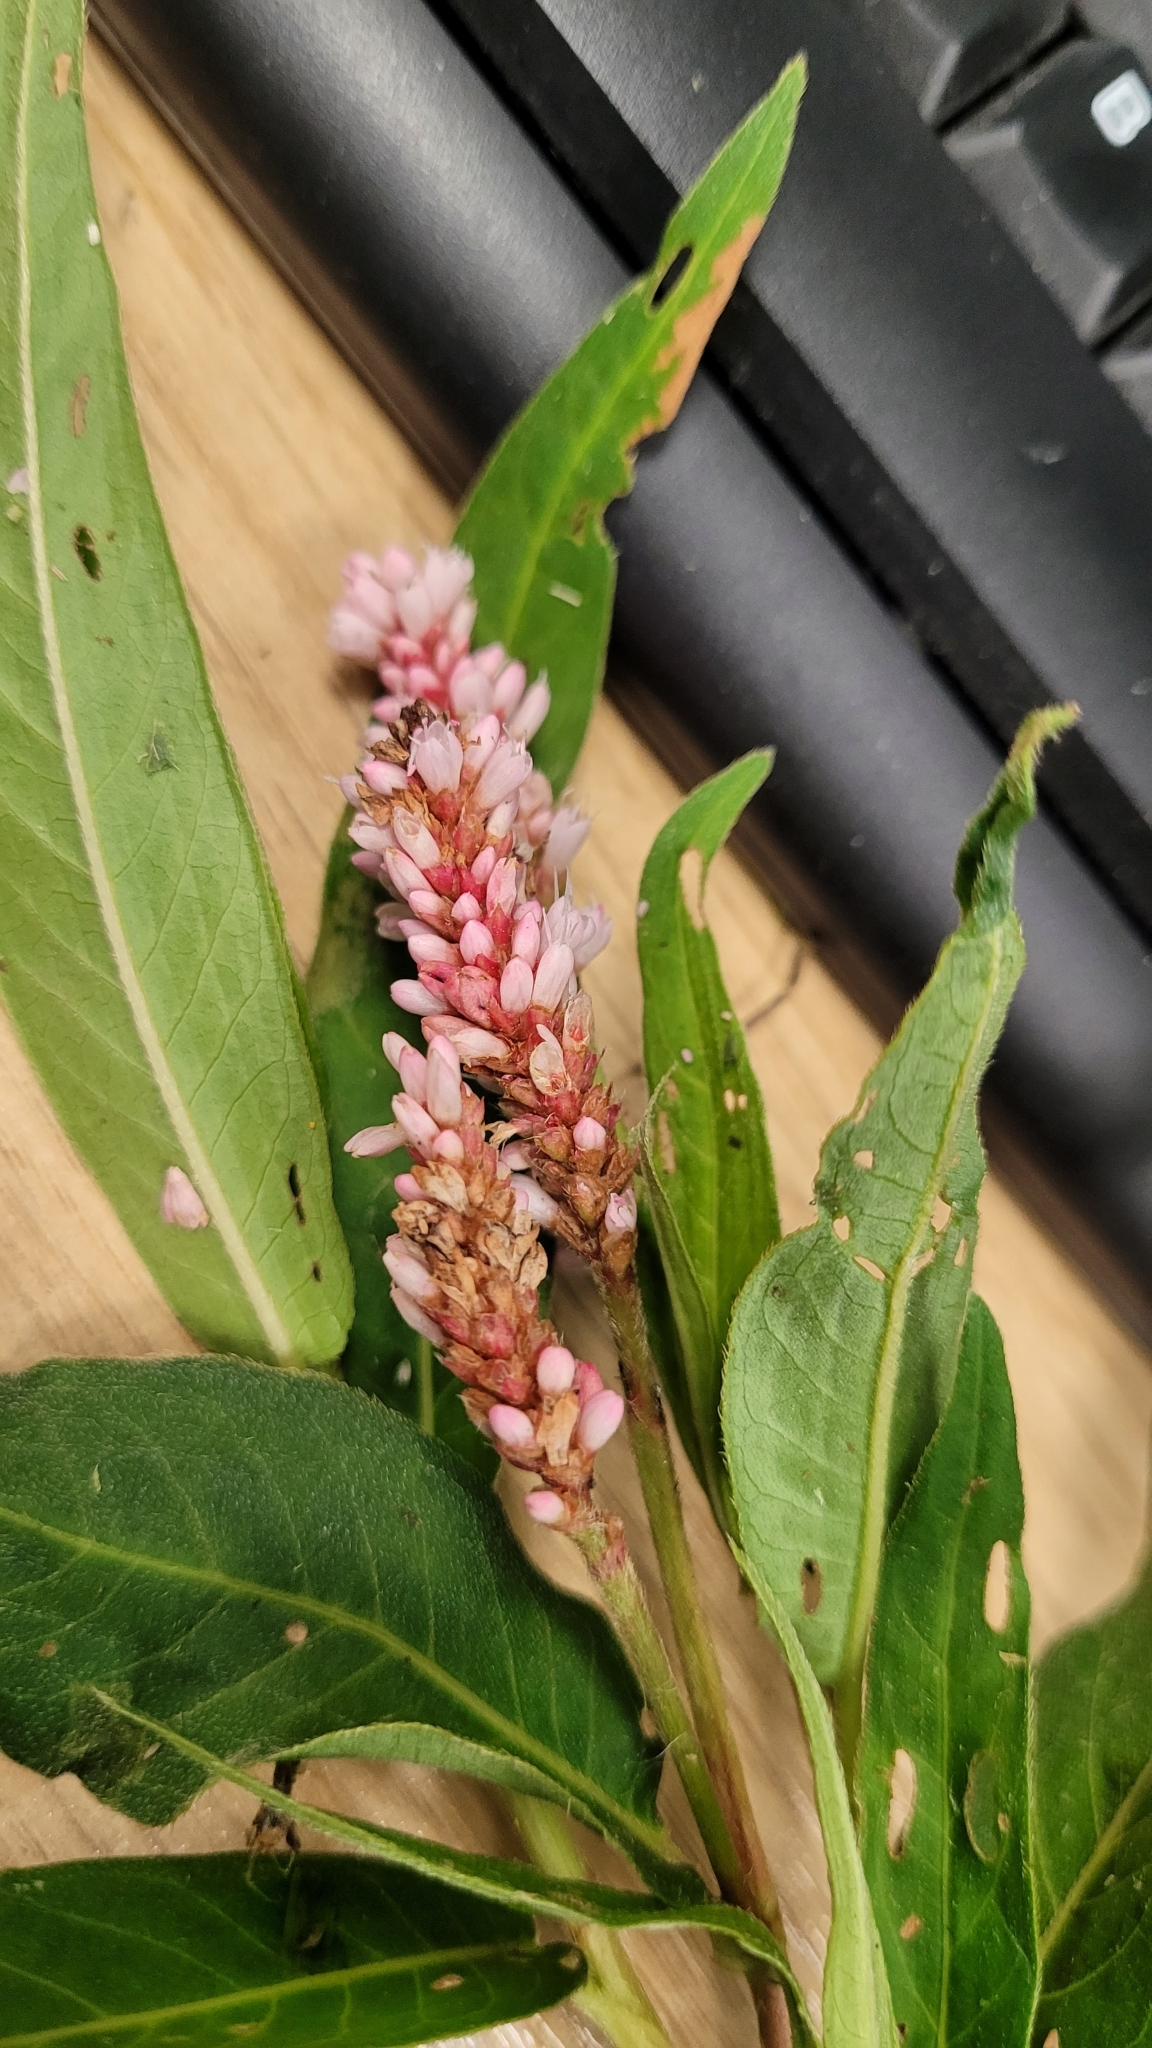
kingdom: Plantae
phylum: Tracheophyta
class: Magnoliopsida
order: Caryophyllales
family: Polygonaceae
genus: Persicaria
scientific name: Persicaria amphibia
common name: Amphibious bistort
